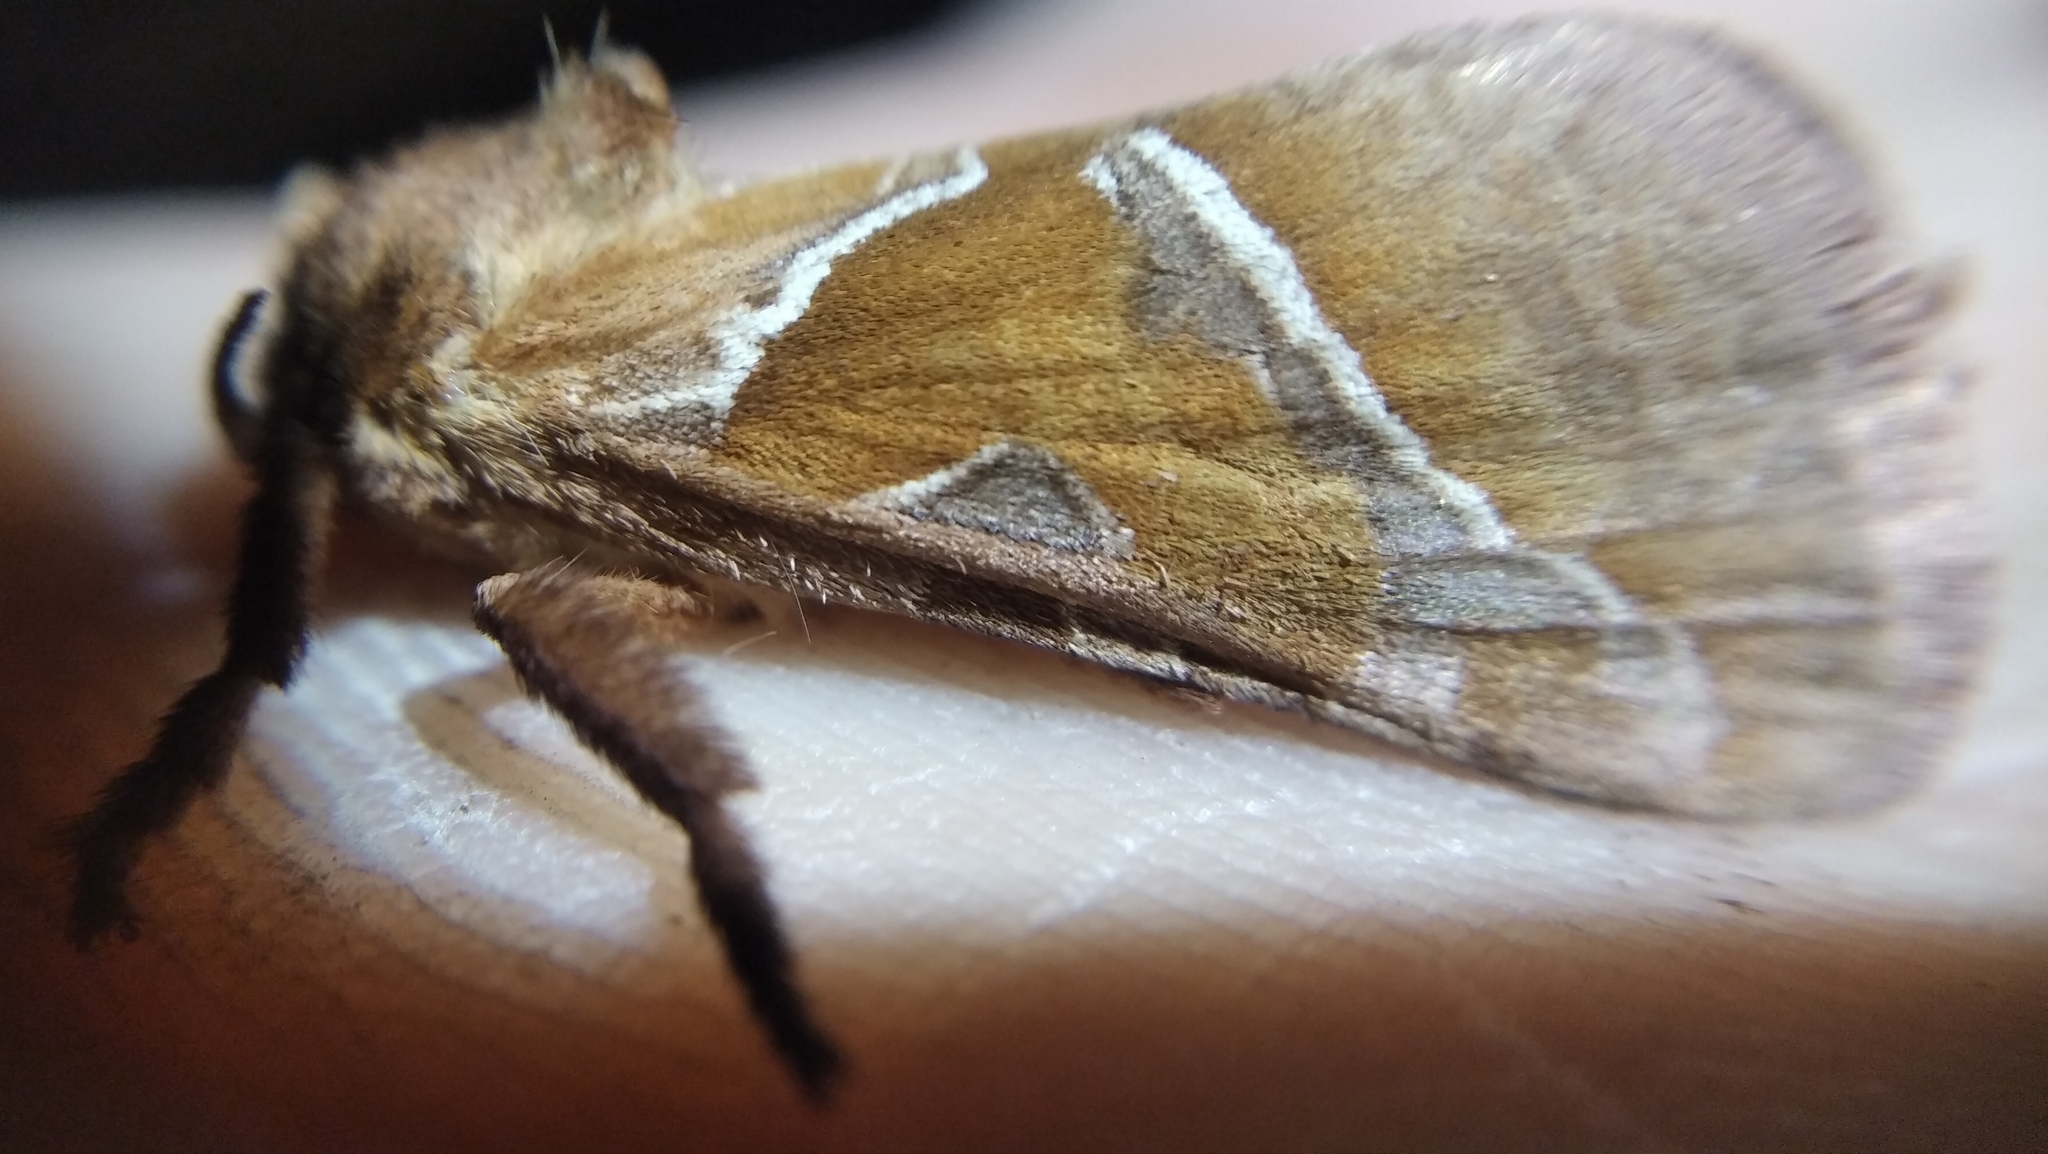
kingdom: Animalia
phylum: Arthropoda
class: Insecta
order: Lepidoptera
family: Hepialidae
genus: Triodia
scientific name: Triodia sylvina
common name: Orange swift
